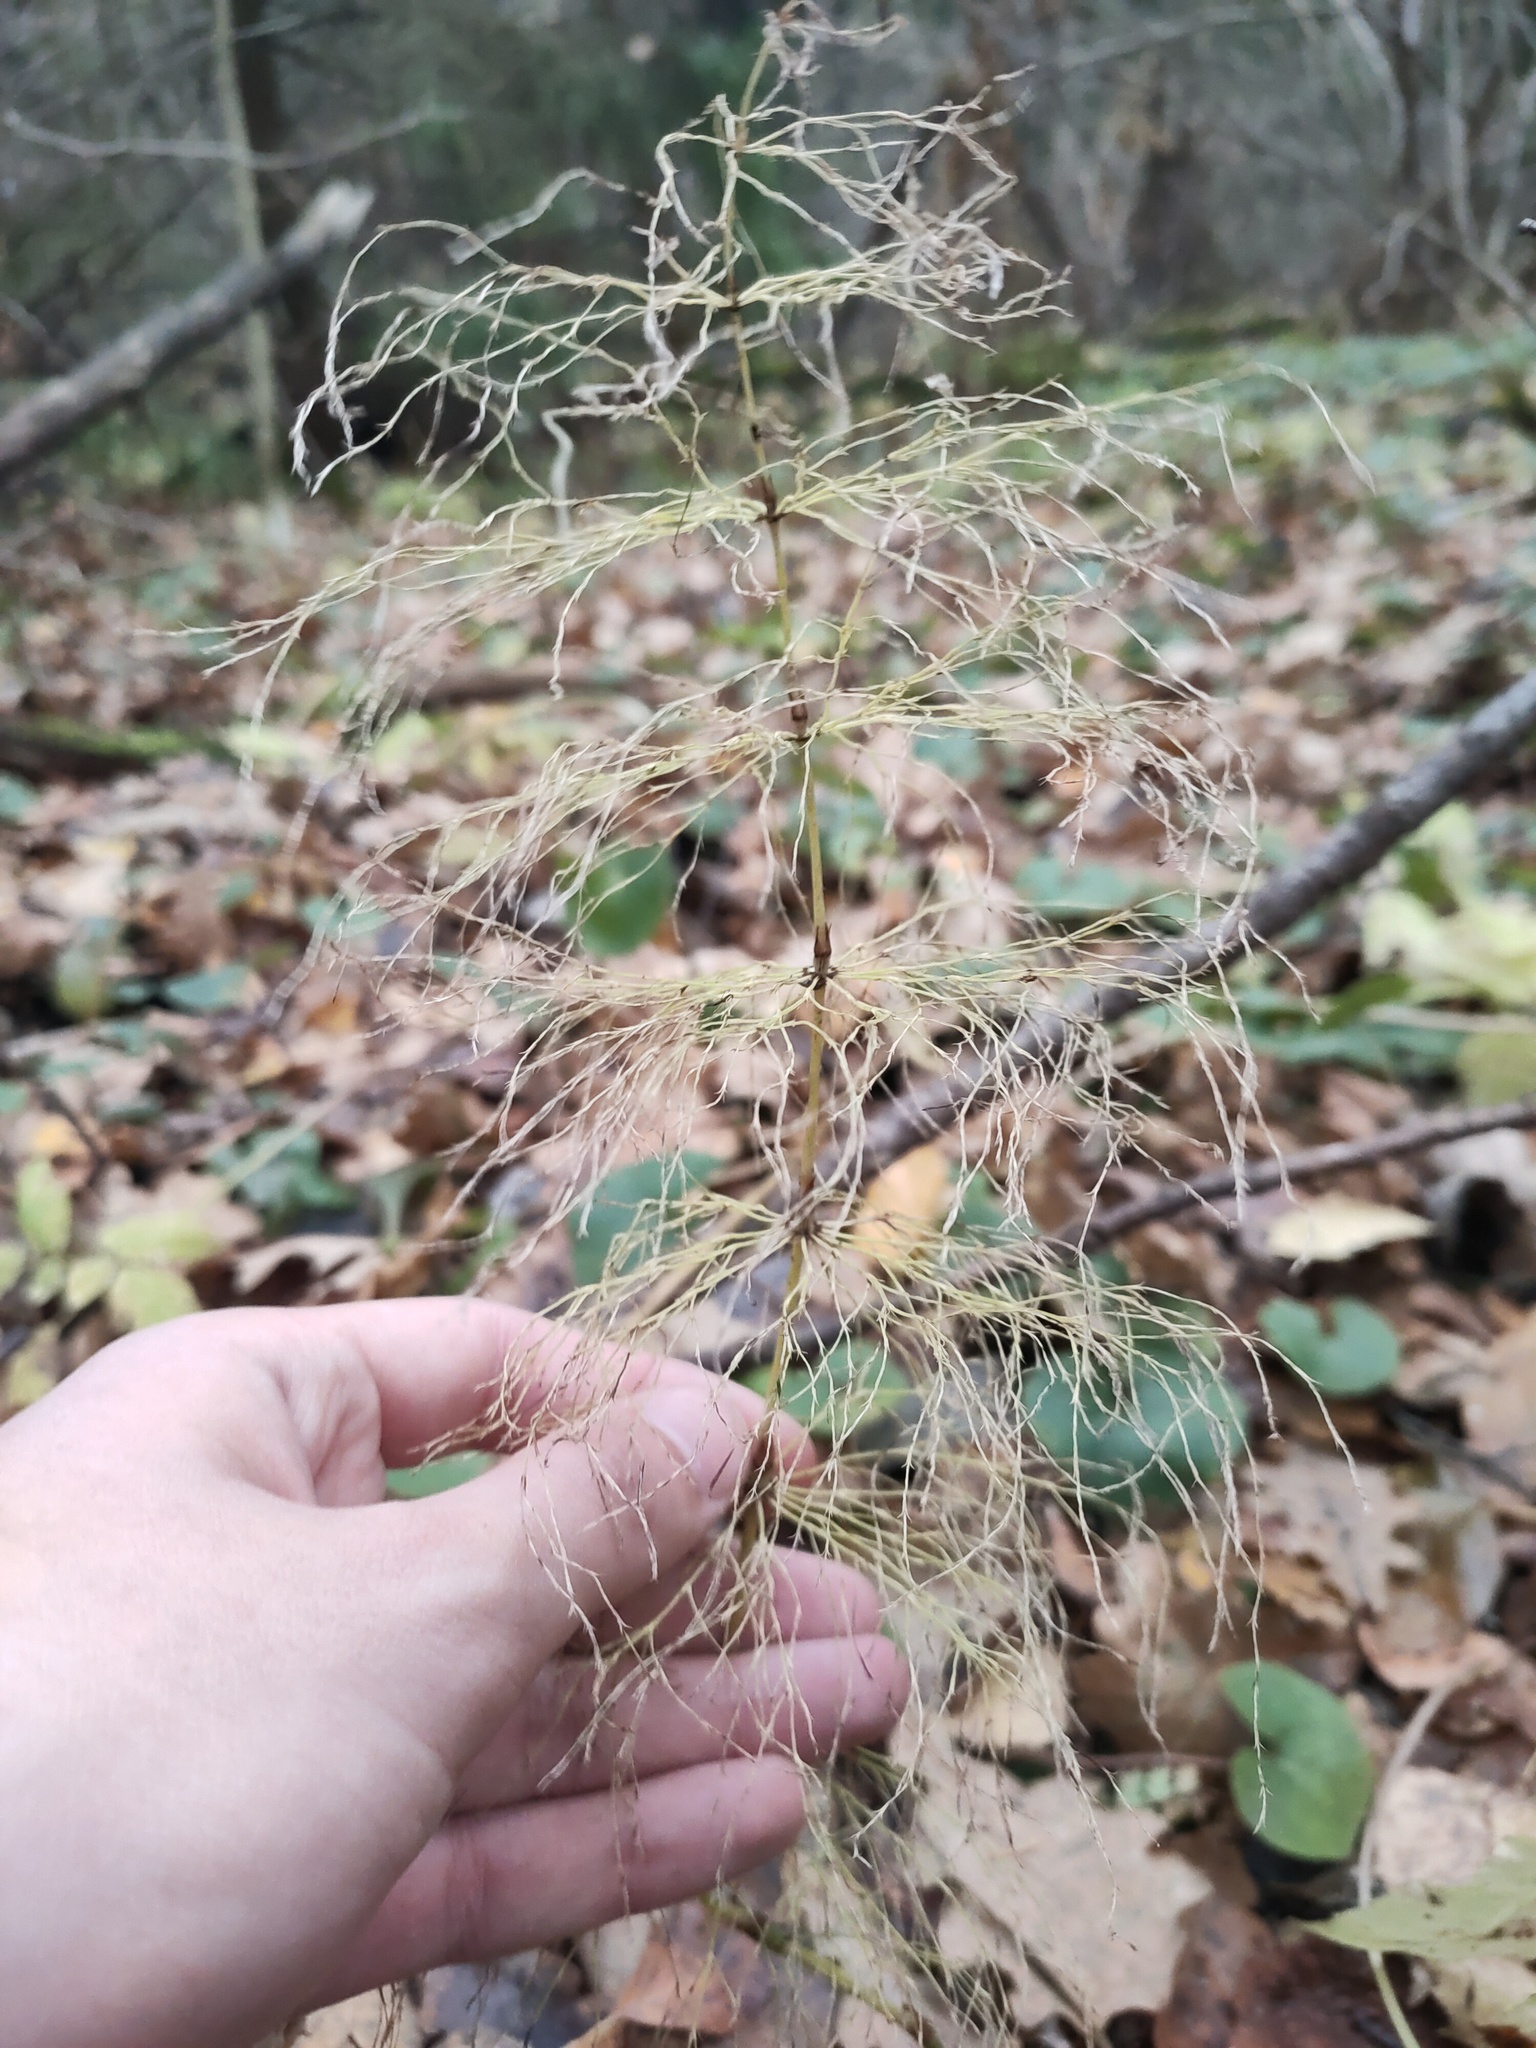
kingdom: Plantae
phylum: Tracheophyta
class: Polypodiopsida
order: Equisetales
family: Equisetaceae
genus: Equisetum
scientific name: Equisetum sylvaticum
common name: Wood horsetail
